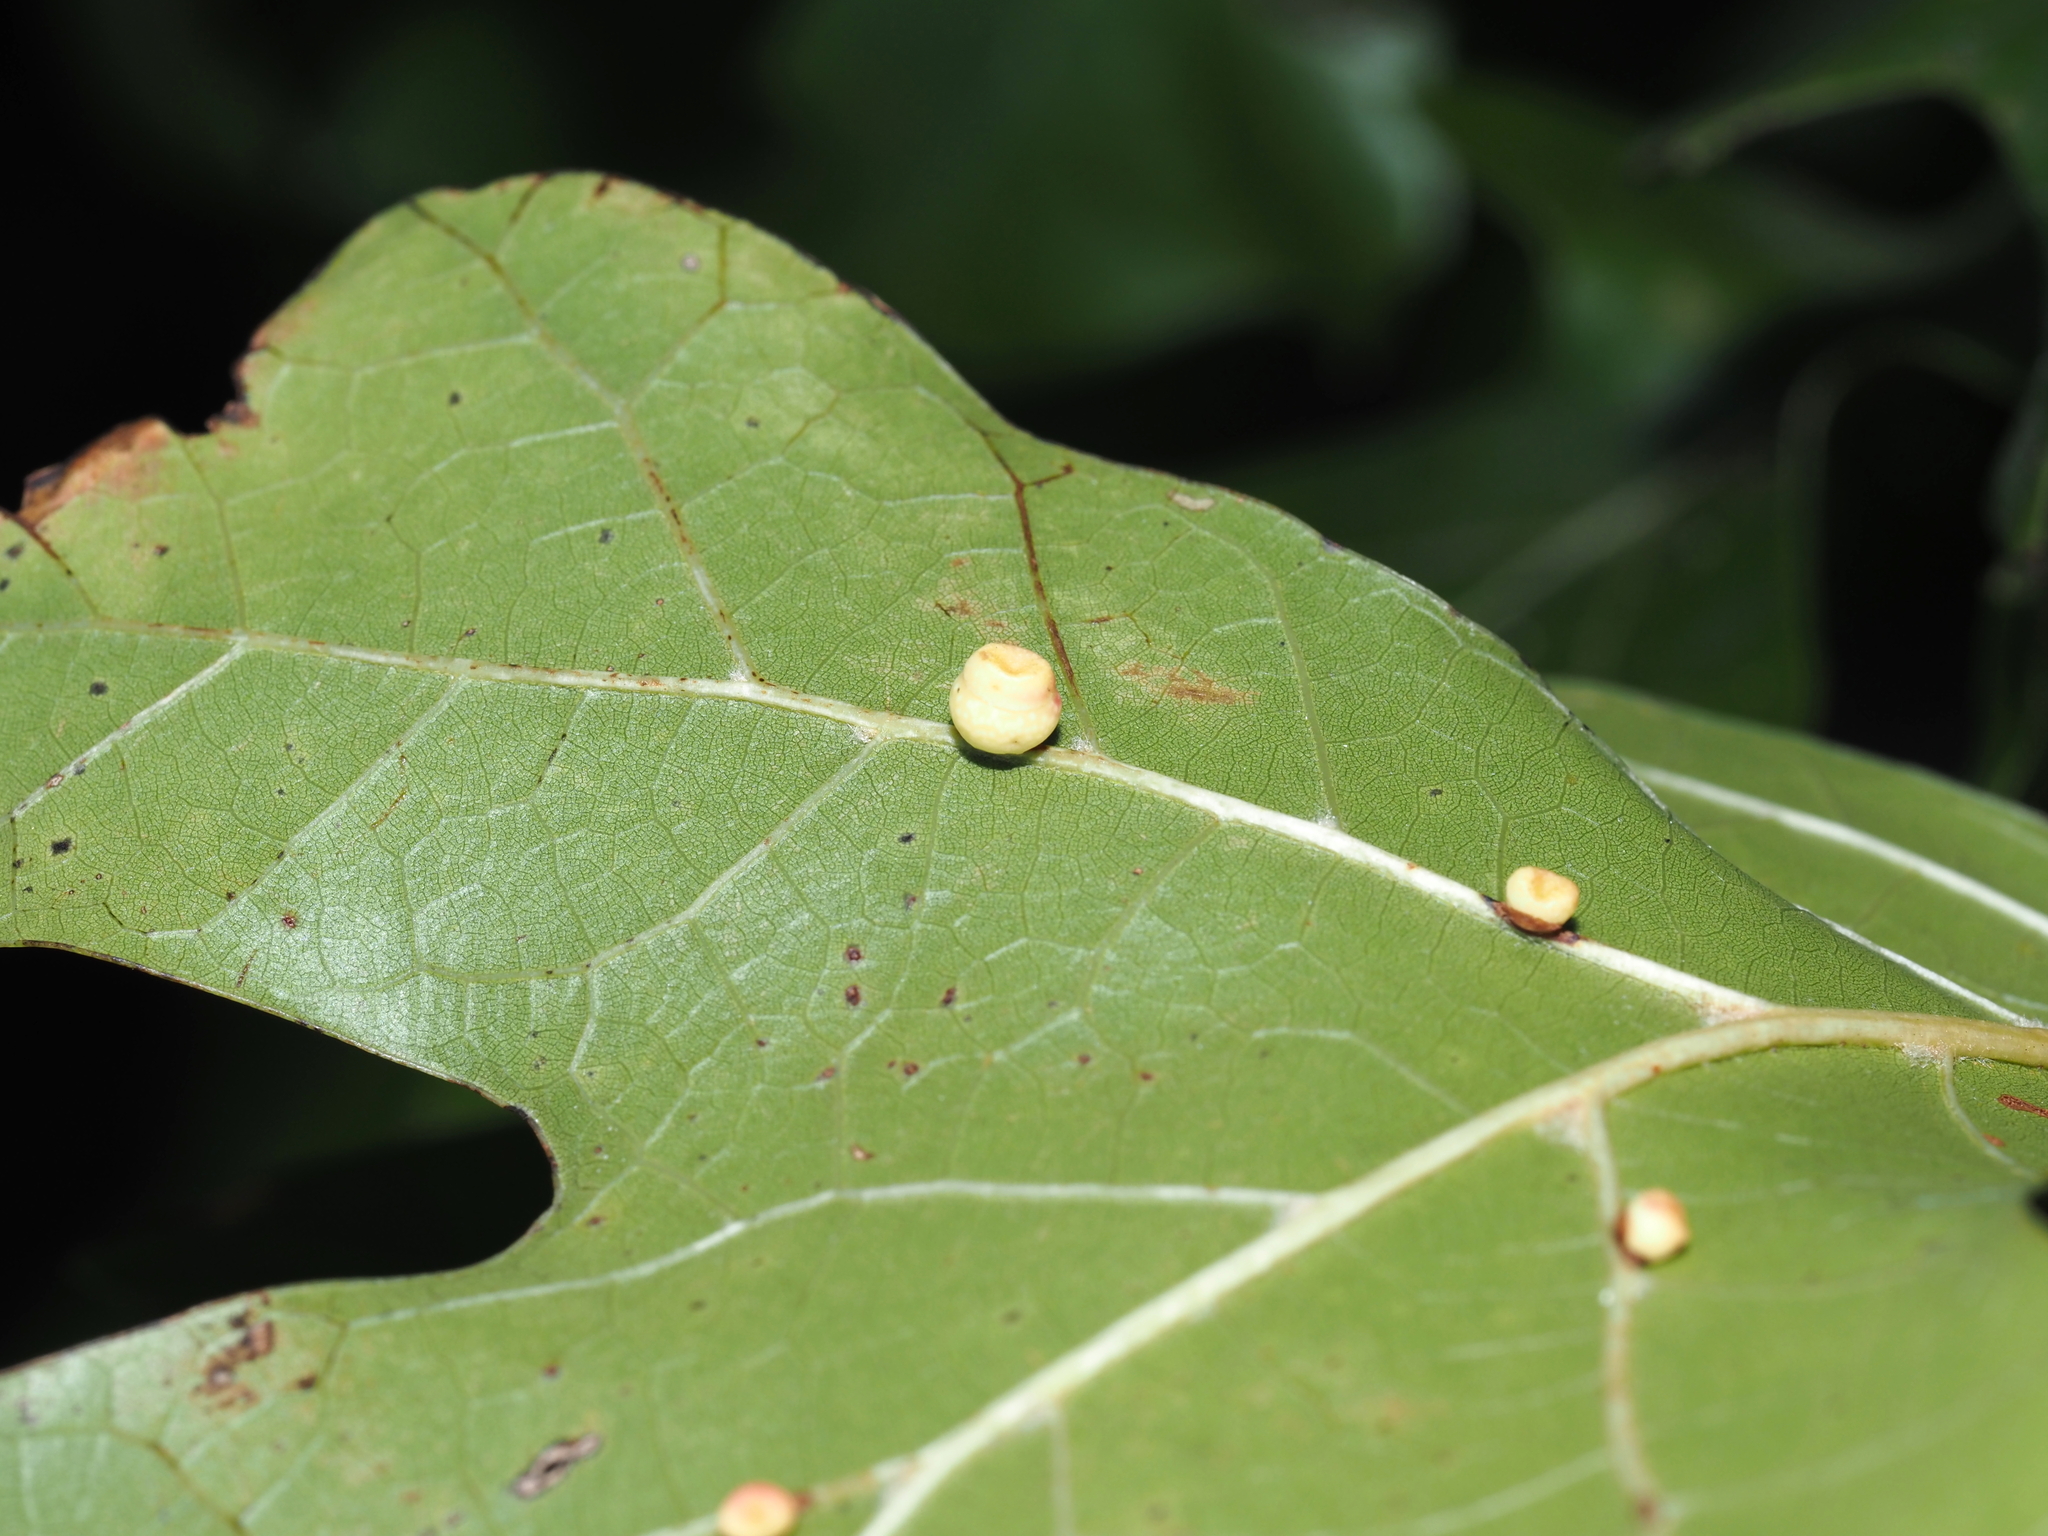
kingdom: Animalia
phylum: Arthropoda
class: Insecta
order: Hymenoptera
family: Cynipidae
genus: Kokkocynips
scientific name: Kokkocynips rileyi
